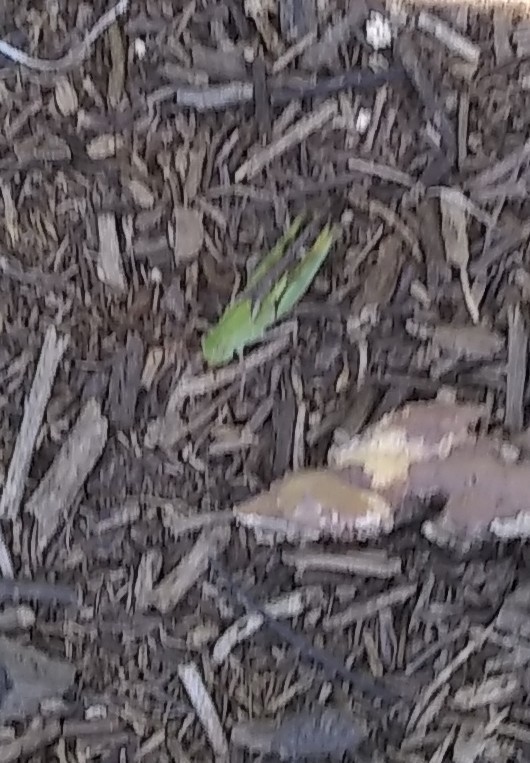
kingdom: Animalia
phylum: Arthropoda
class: Insecta
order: Orthoptera
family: Acrididae
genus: Chortophaga
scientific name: Chortophaga viridifasciata
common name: Green-striped grasshopper
